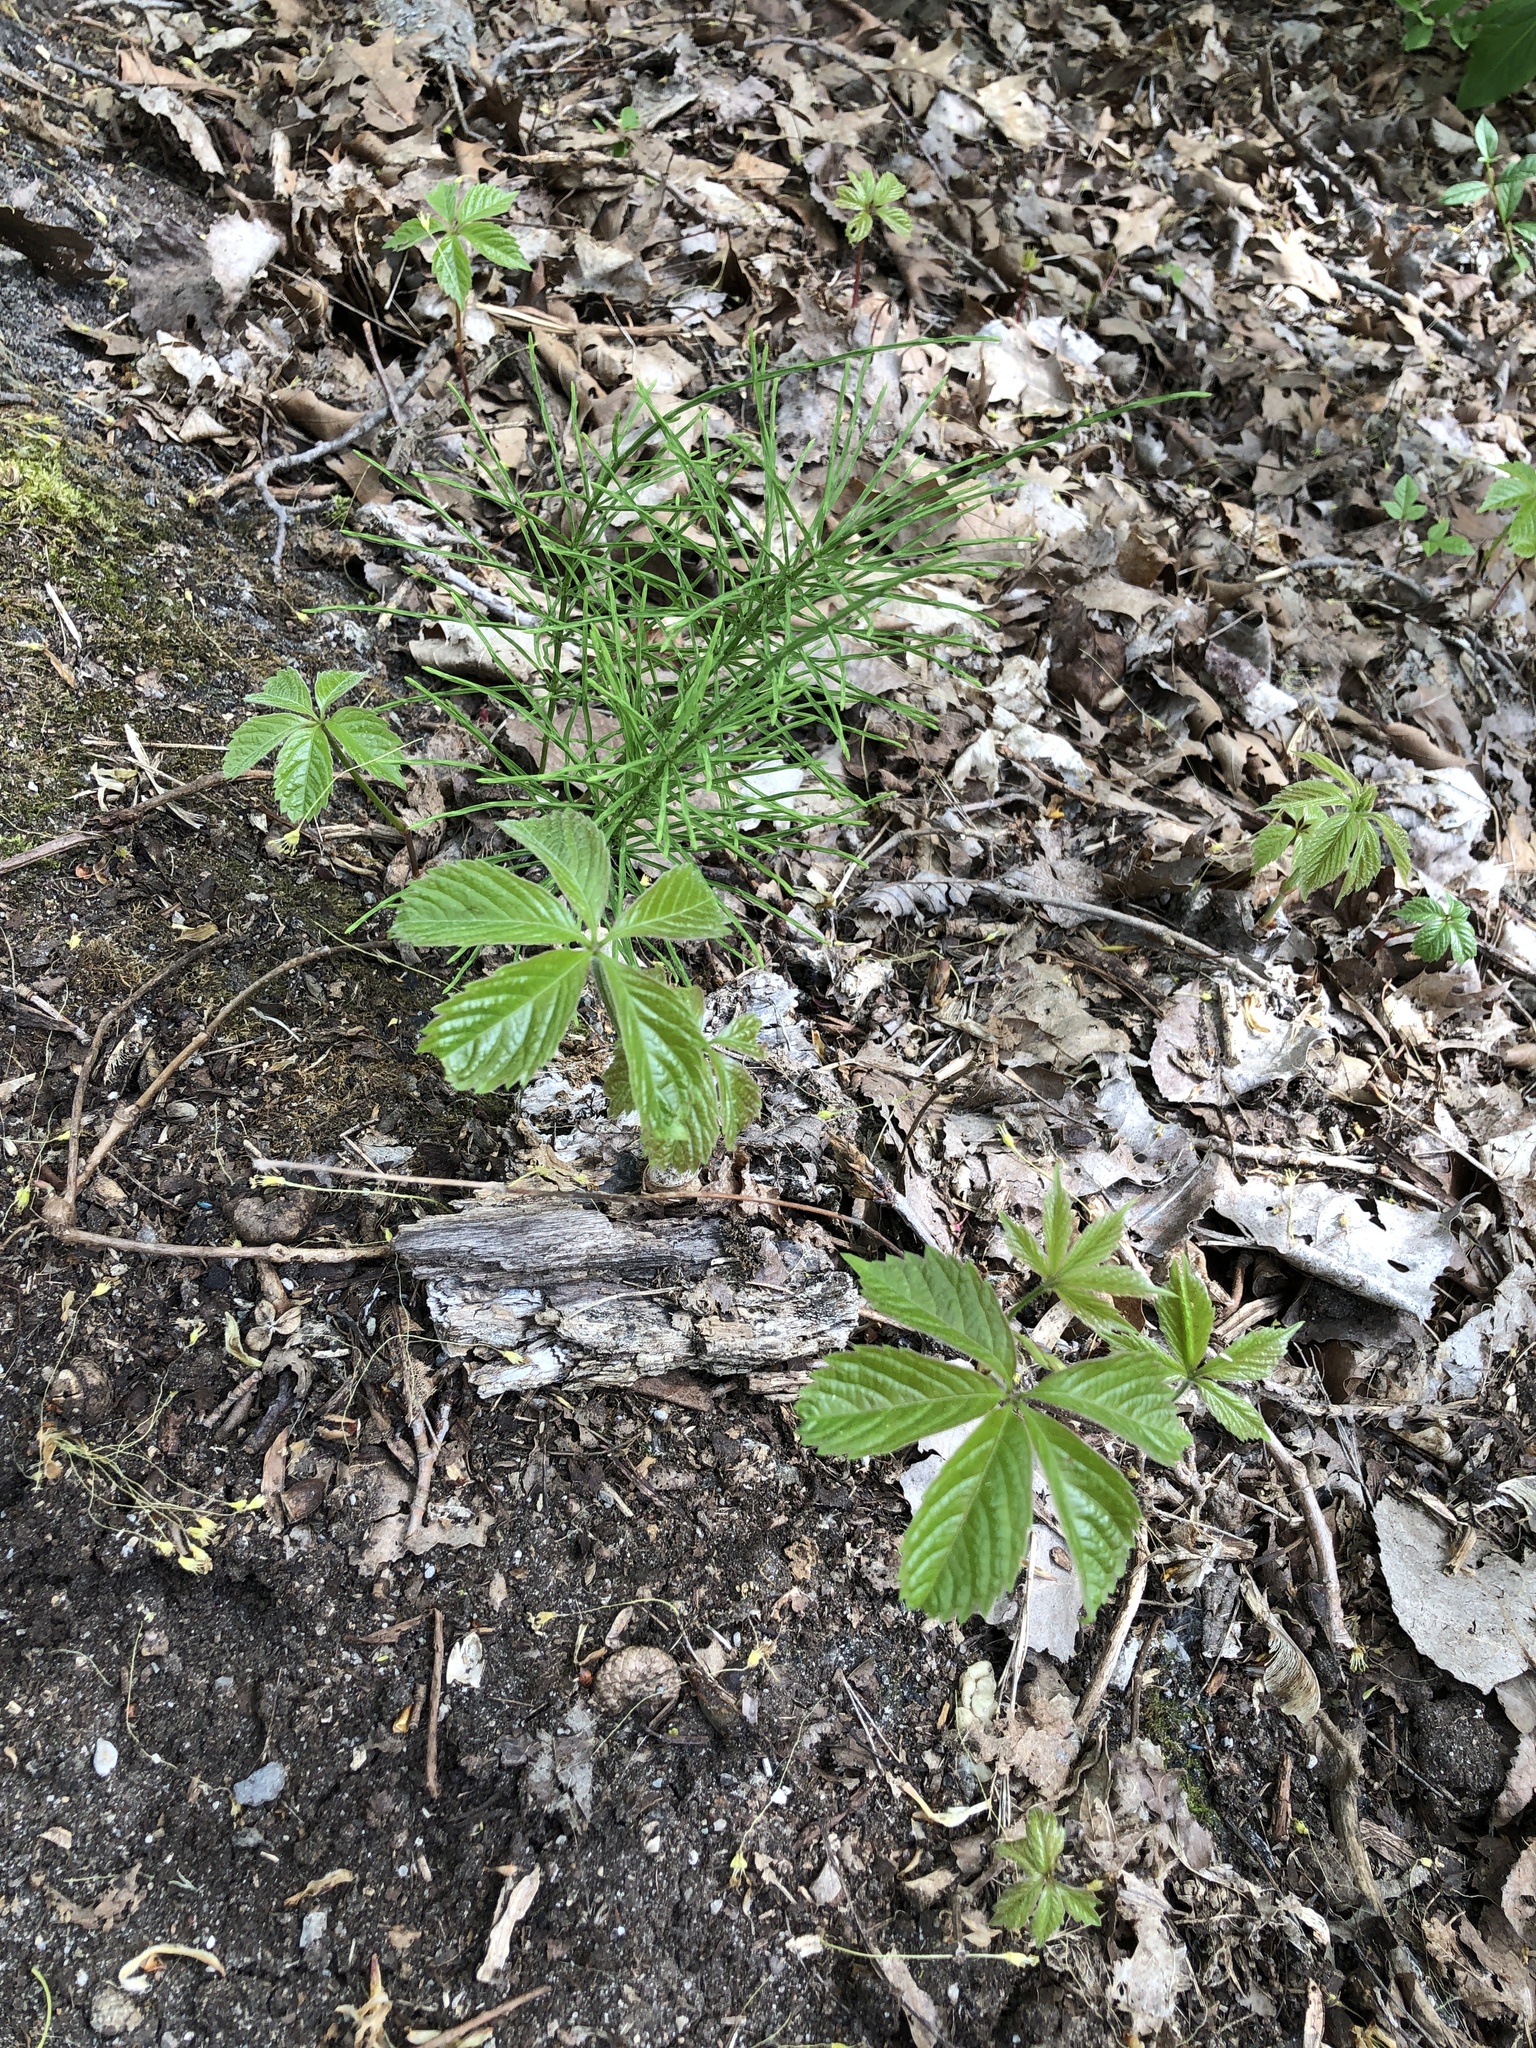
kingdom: Plantae
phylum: Tracheophyta
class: Magnoliopsida
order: Vitales
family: Vitaceae
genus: Parthenocissus
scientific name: Parthenocissus quinquefolia
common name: Virginia-creeper
